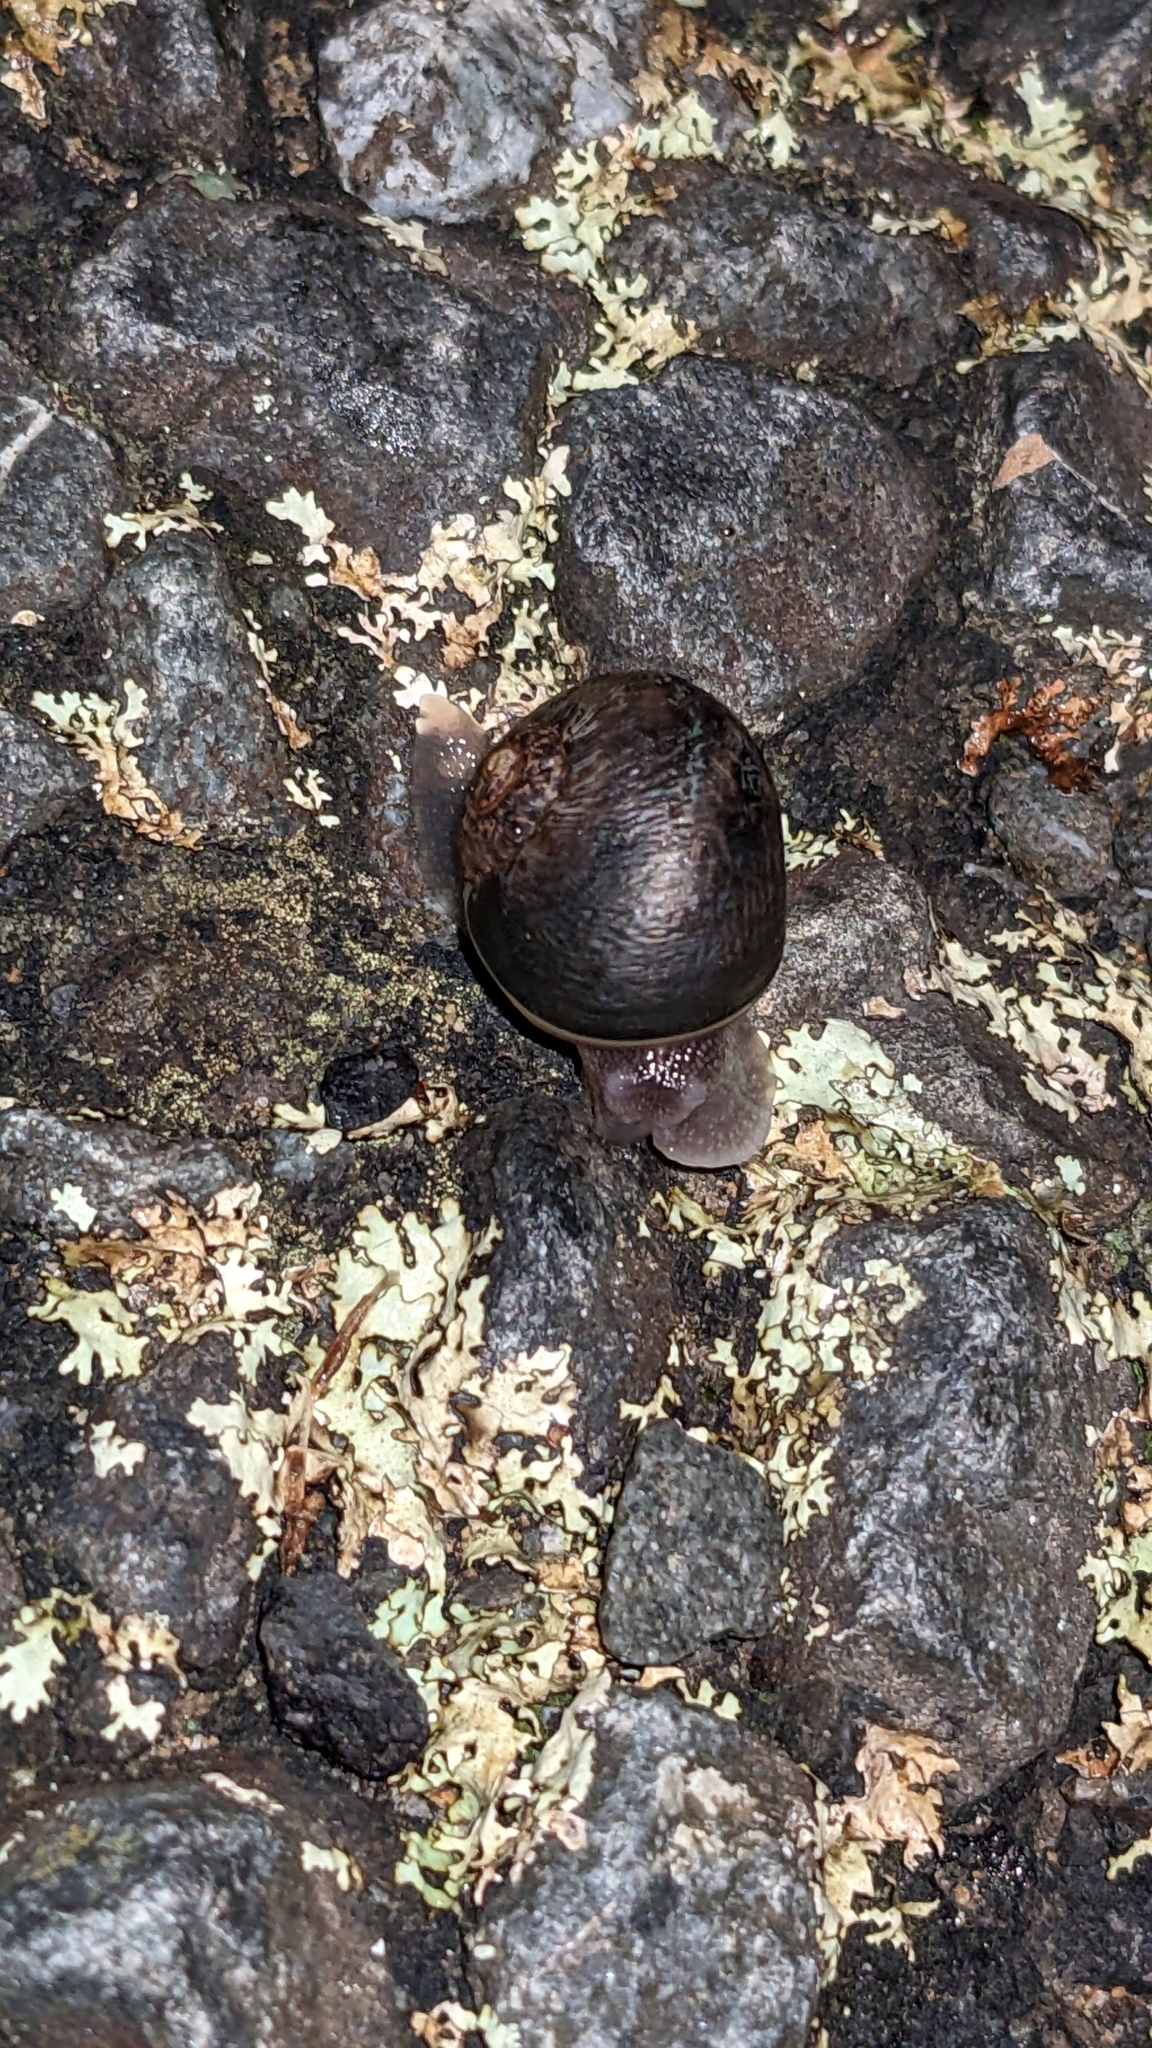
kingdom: Animalia
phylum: Mollusca
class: Gastropoda
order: Stylommatophora
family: Helicidae
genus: Cornu
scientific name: Cornu aspersum
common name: Brown garden snail
